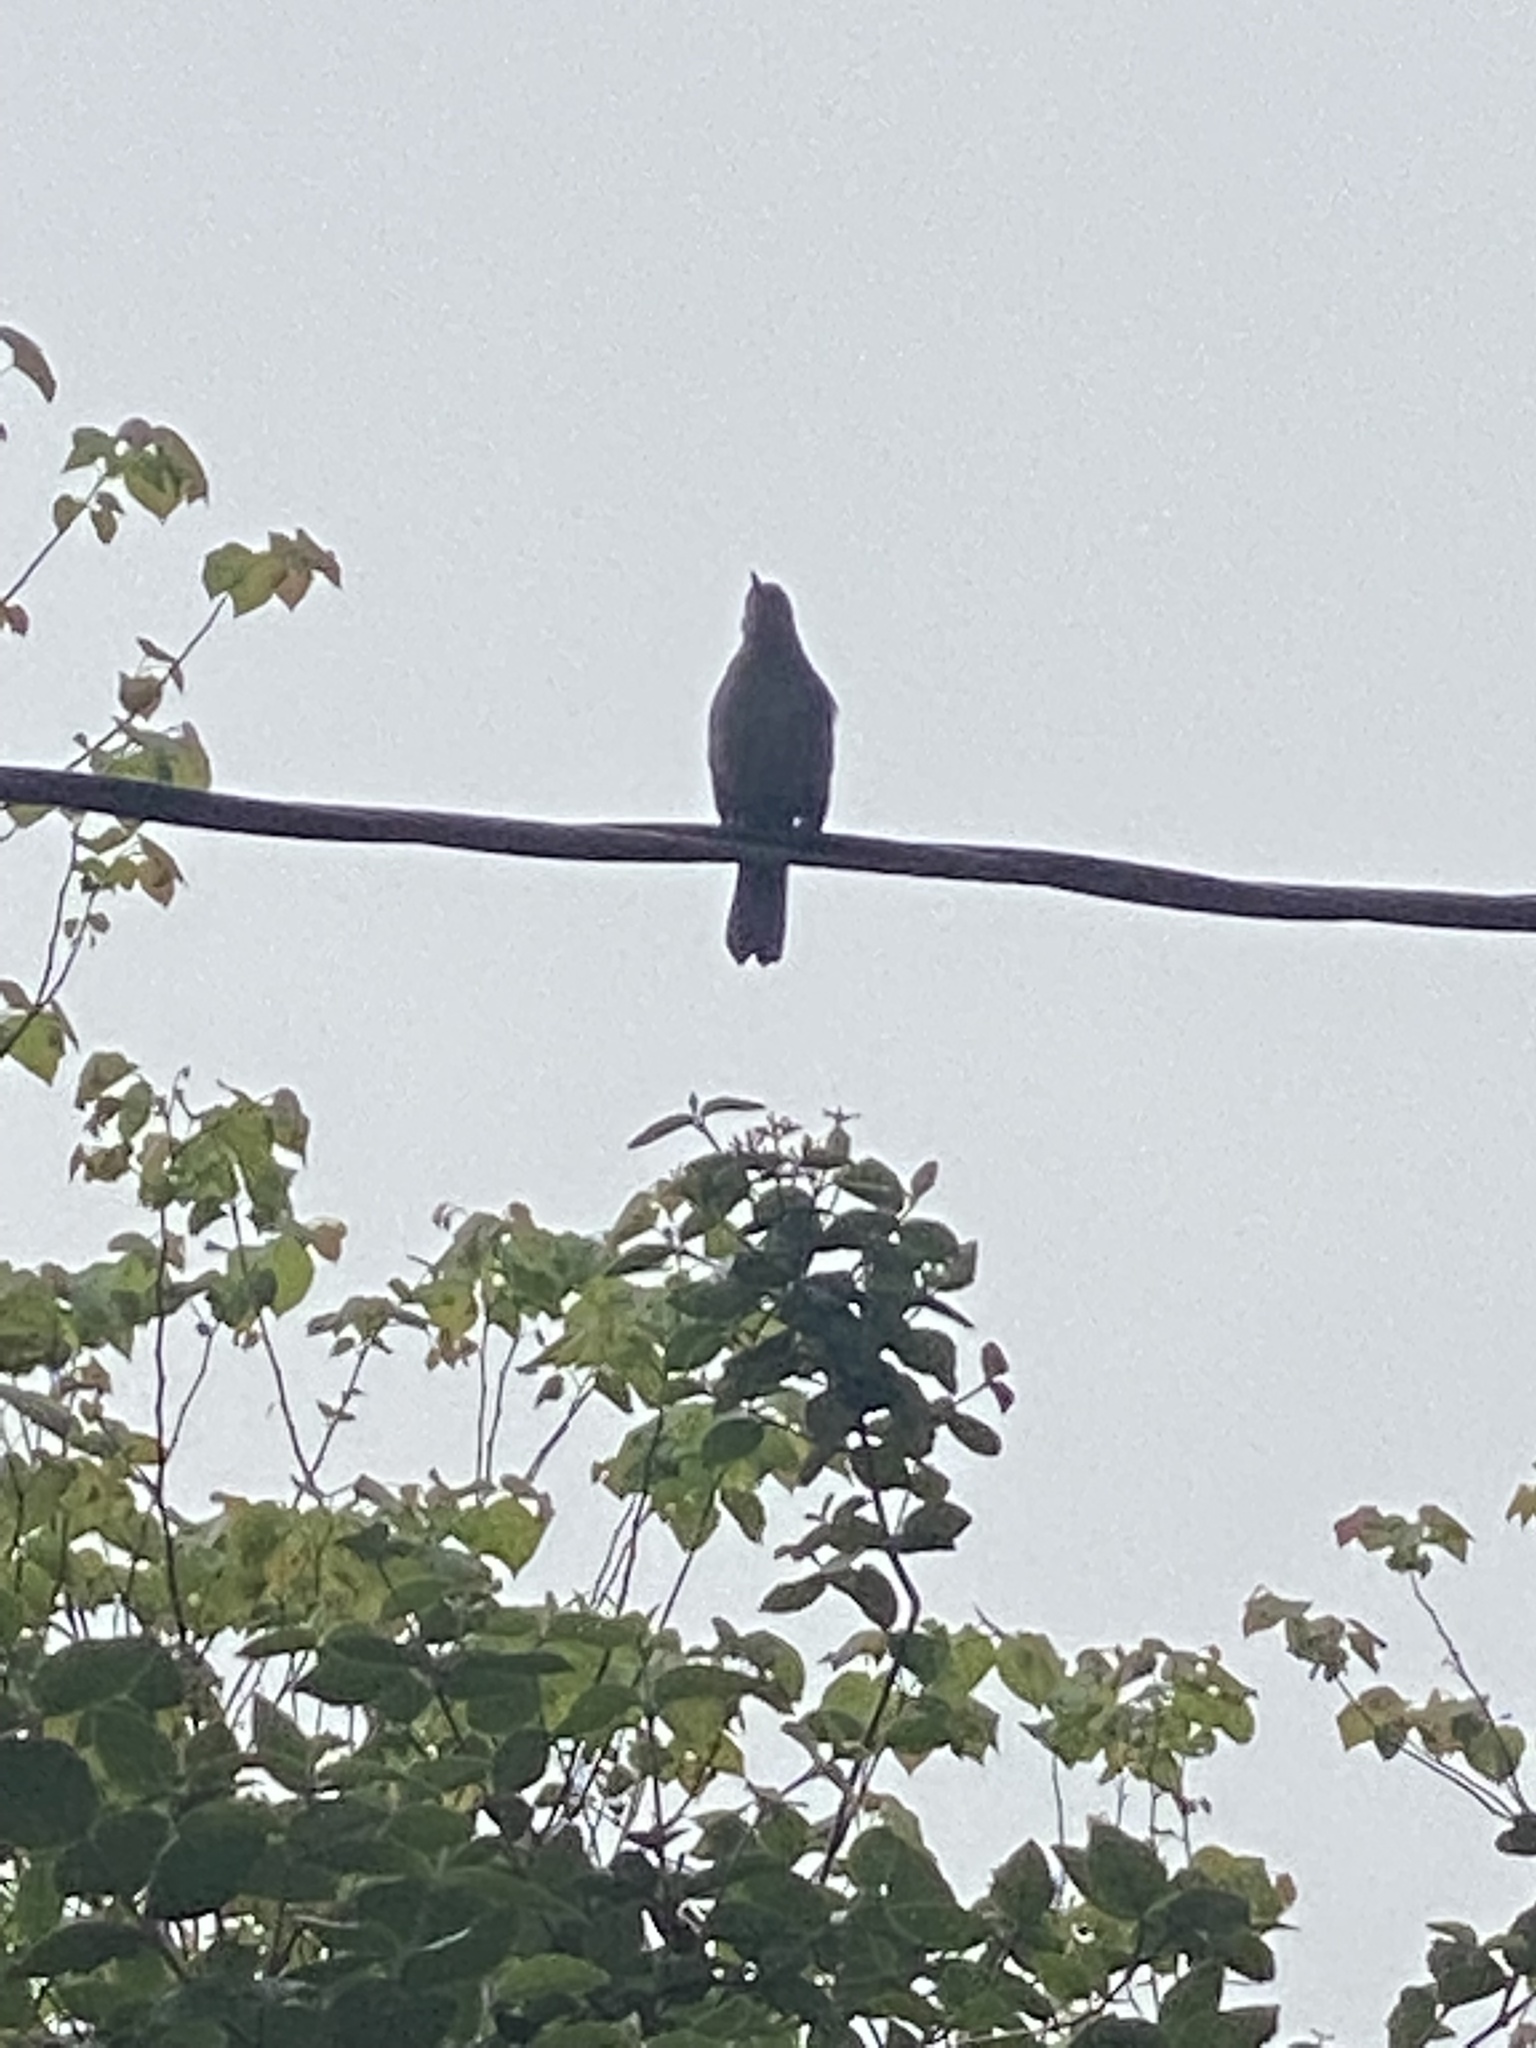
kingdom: Animalia
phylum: Chordata
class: Aves
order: Passeriformes
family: Mimidae
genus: Dumetella
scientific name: Dumetella carolinensis
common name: Gray catbird
